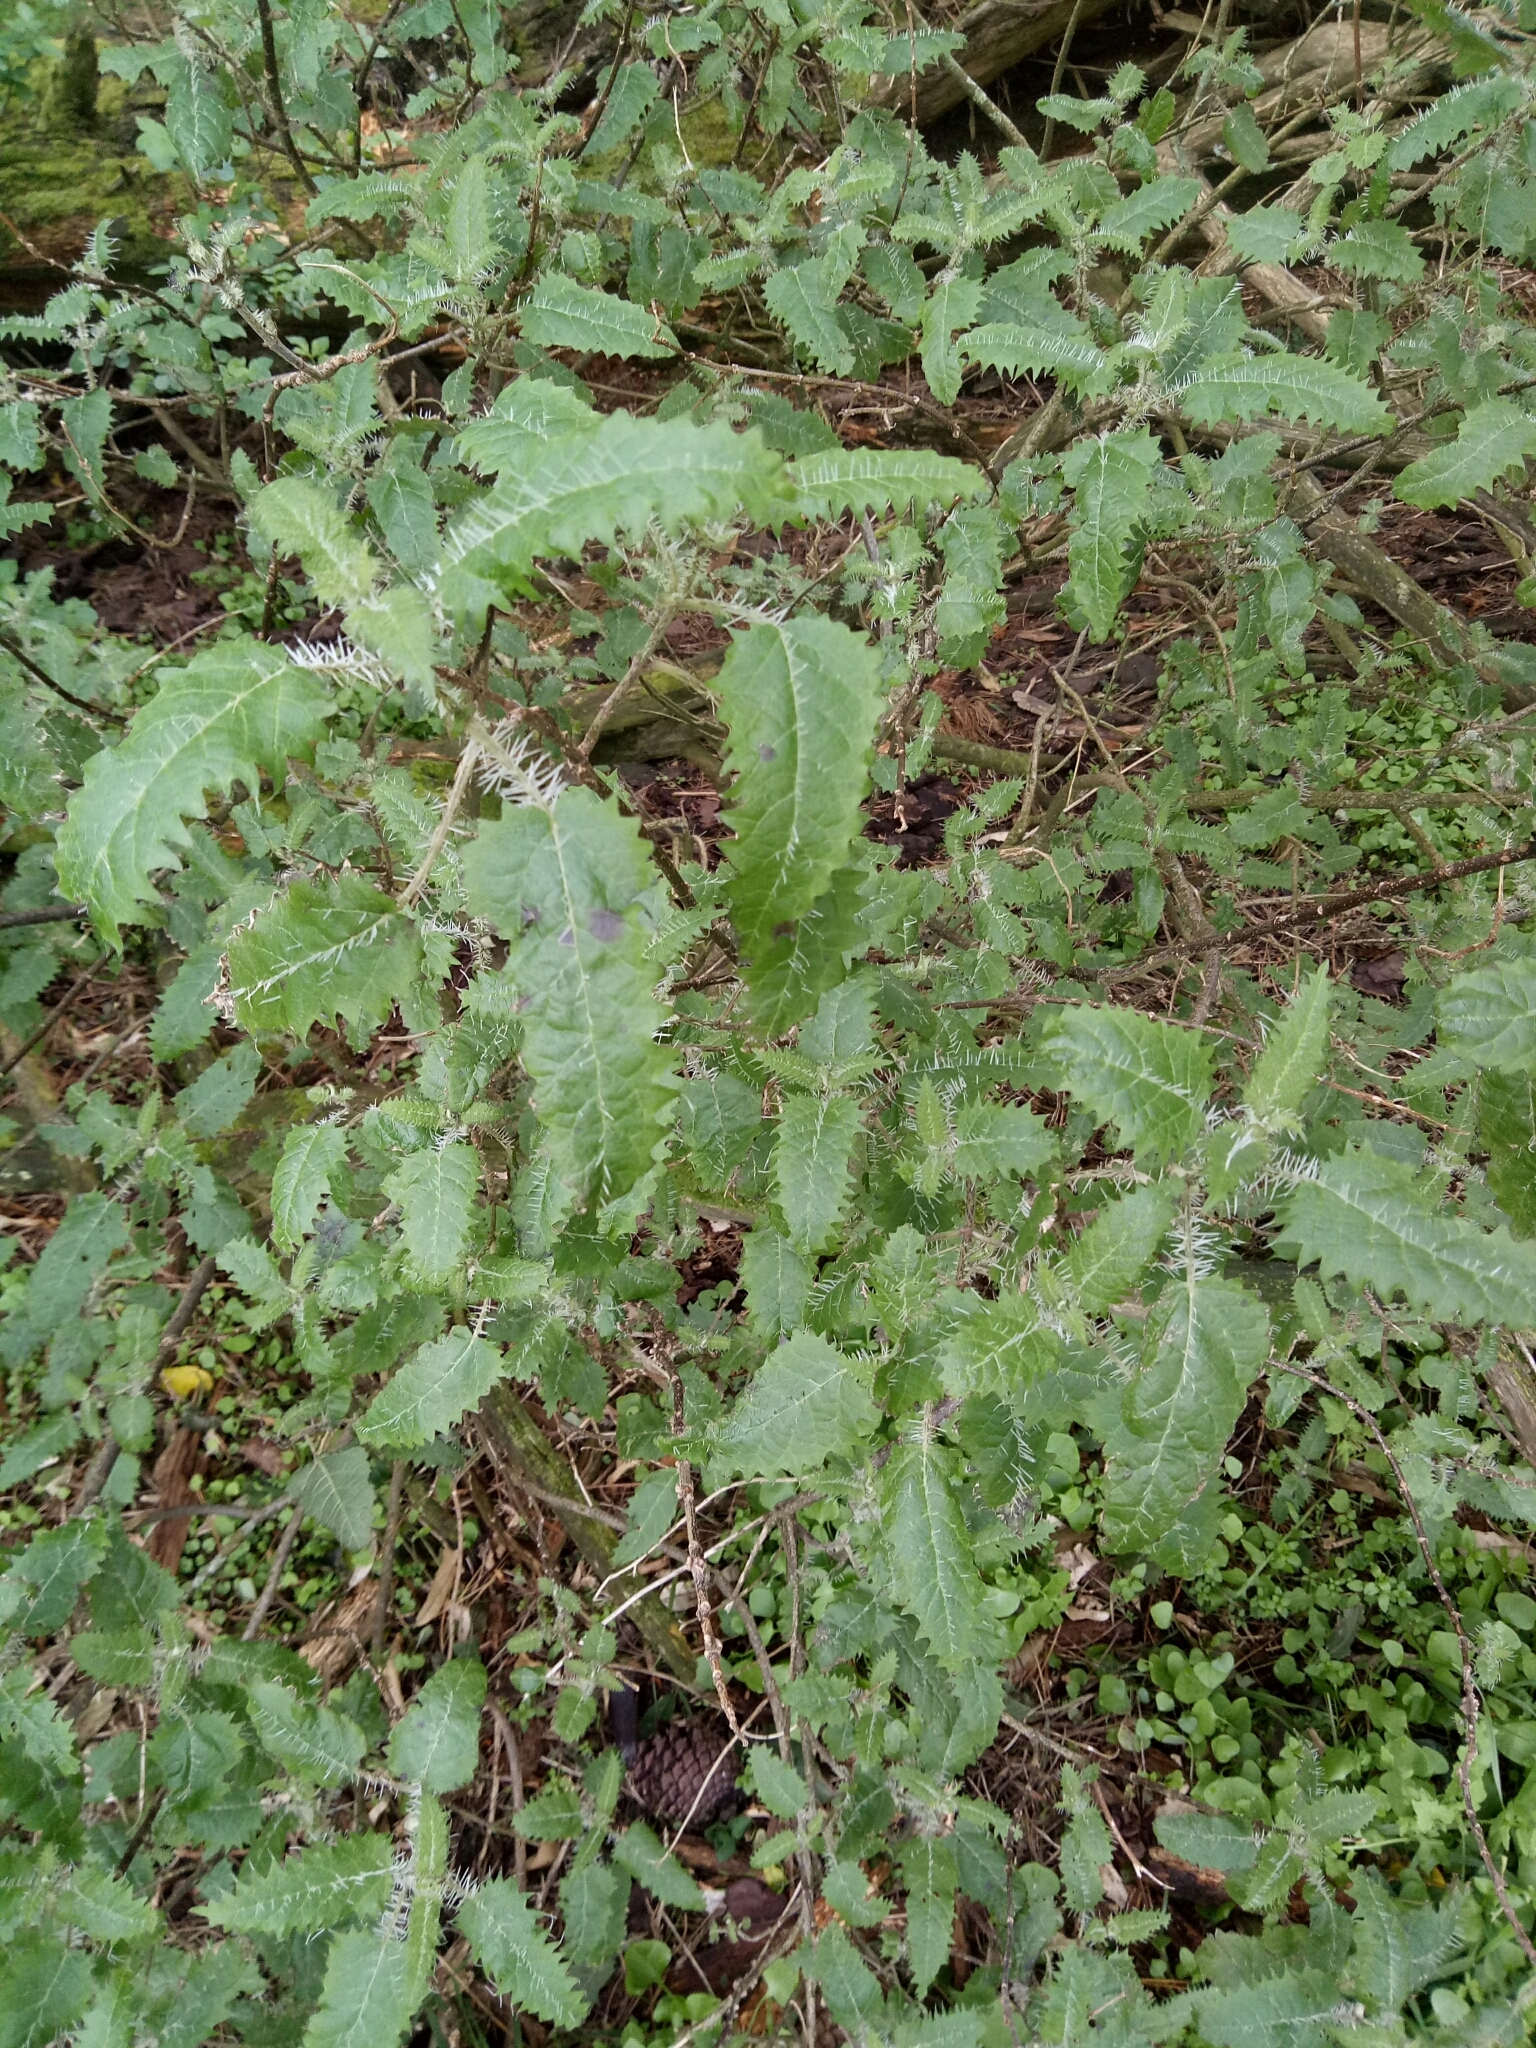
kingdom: Plantae
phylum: Tracheophyta
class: Magnoliopsida
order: Rosales
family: Urticaceae
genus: Urtica
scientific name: Urtica ferox
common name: Tree nettle
